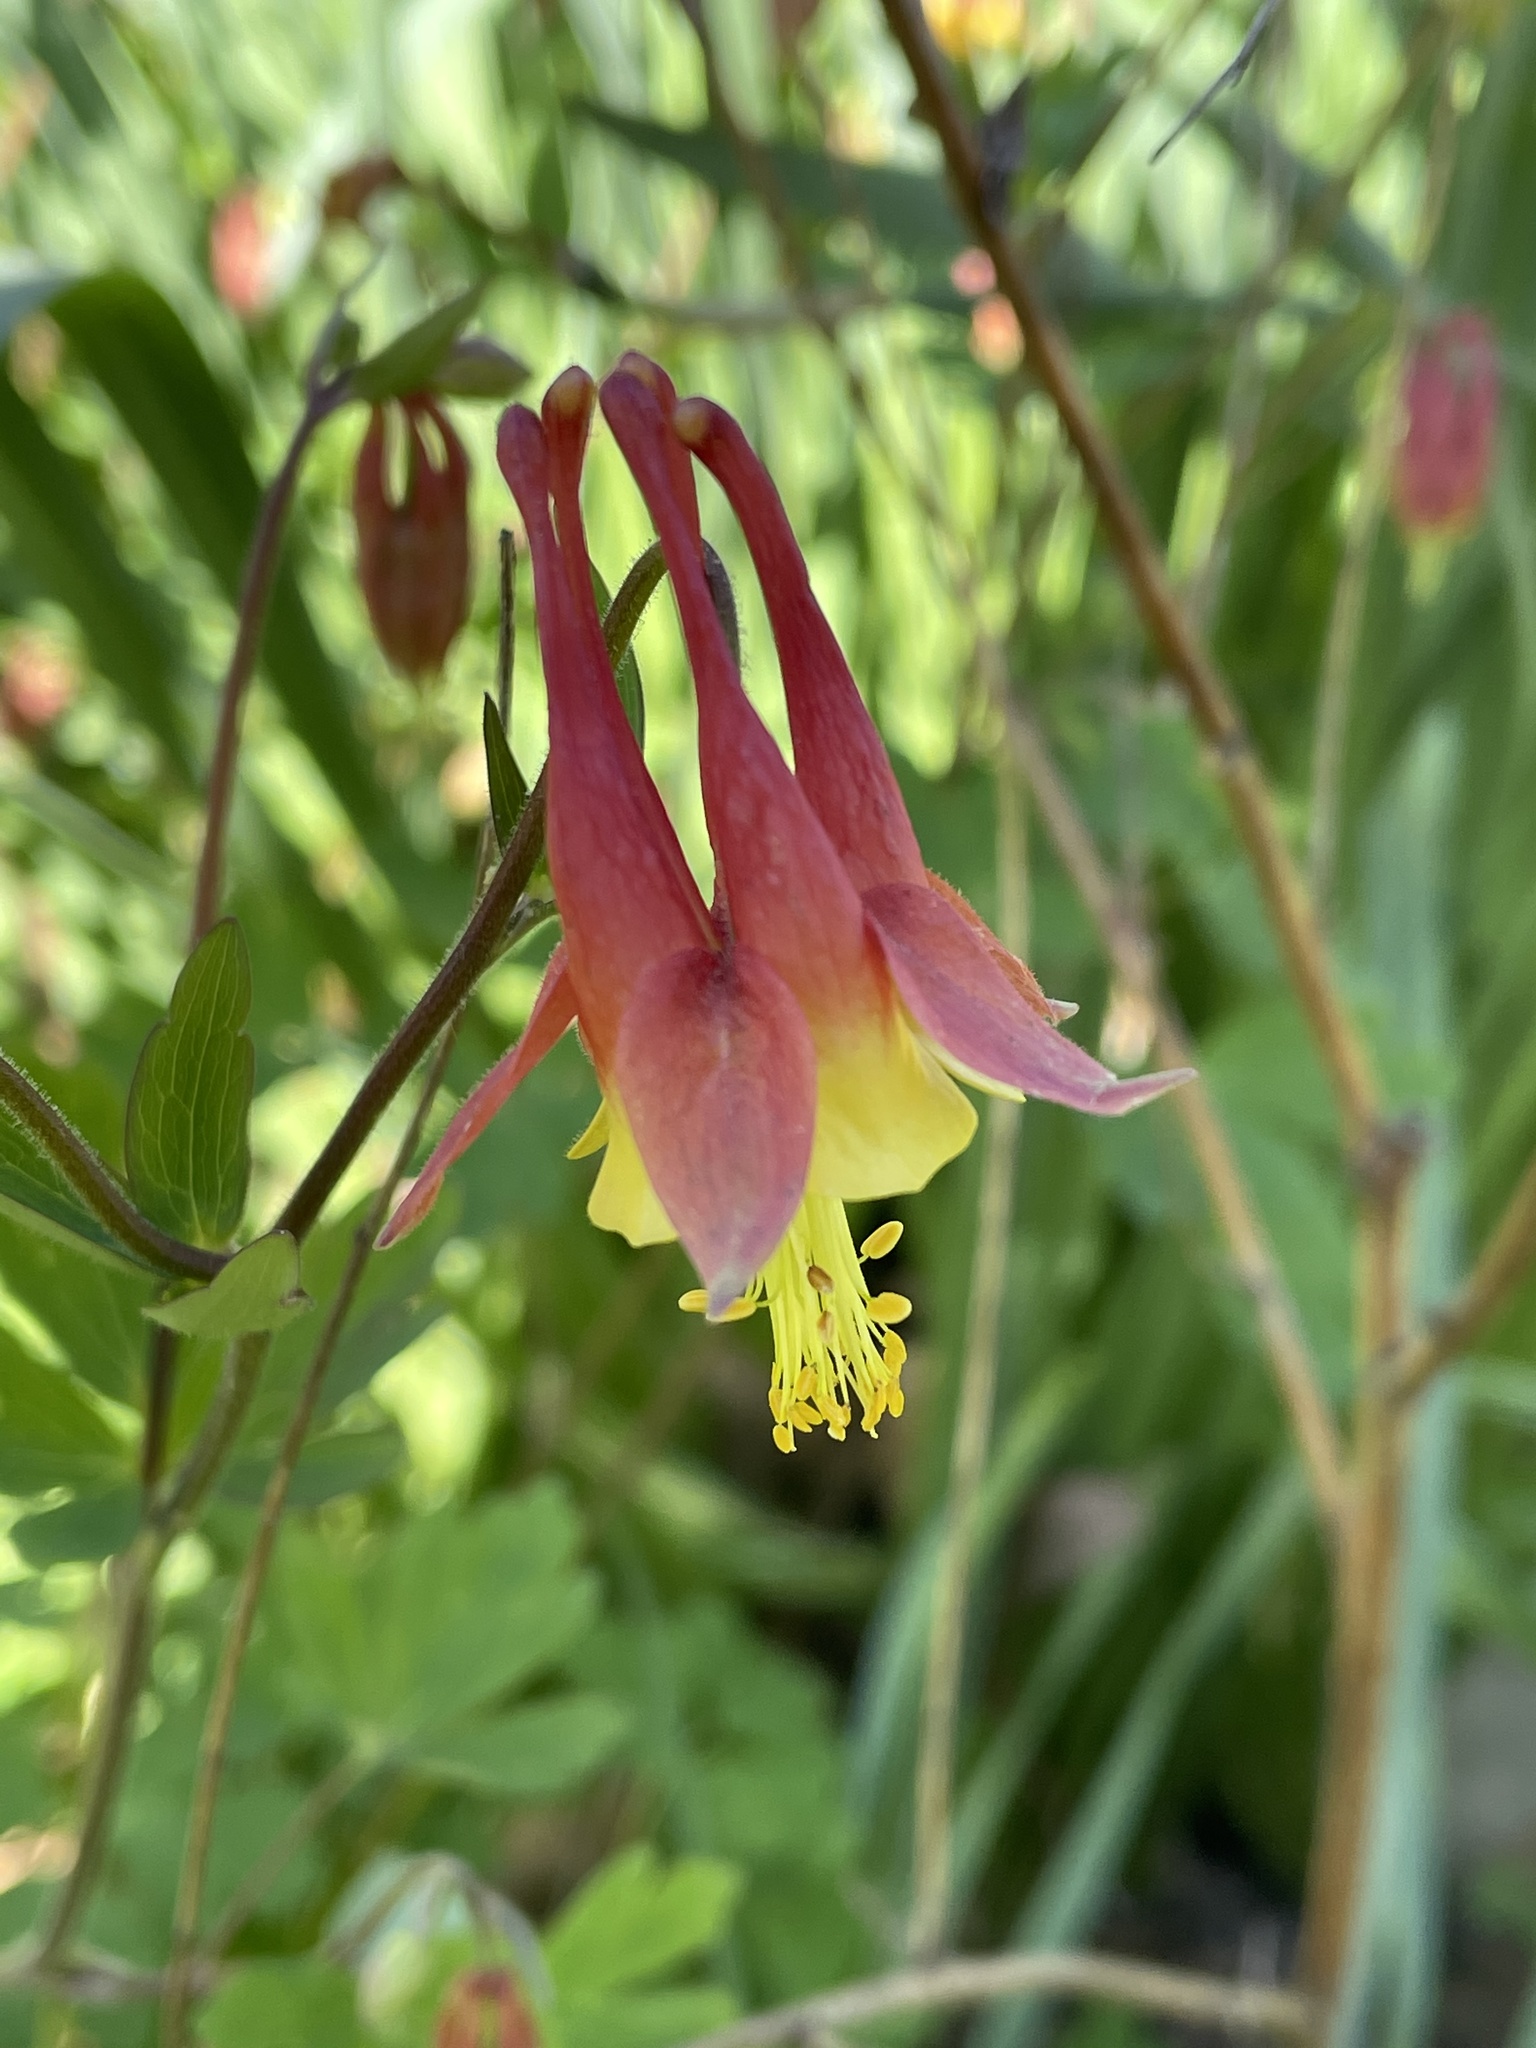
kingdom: Plantae
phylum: Tracheophyta
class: Magnoliopsida
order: Ranunculales
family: Ranunculaceae
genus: Aquilegia
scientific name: Aquilegia canadensis
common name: American columbine
